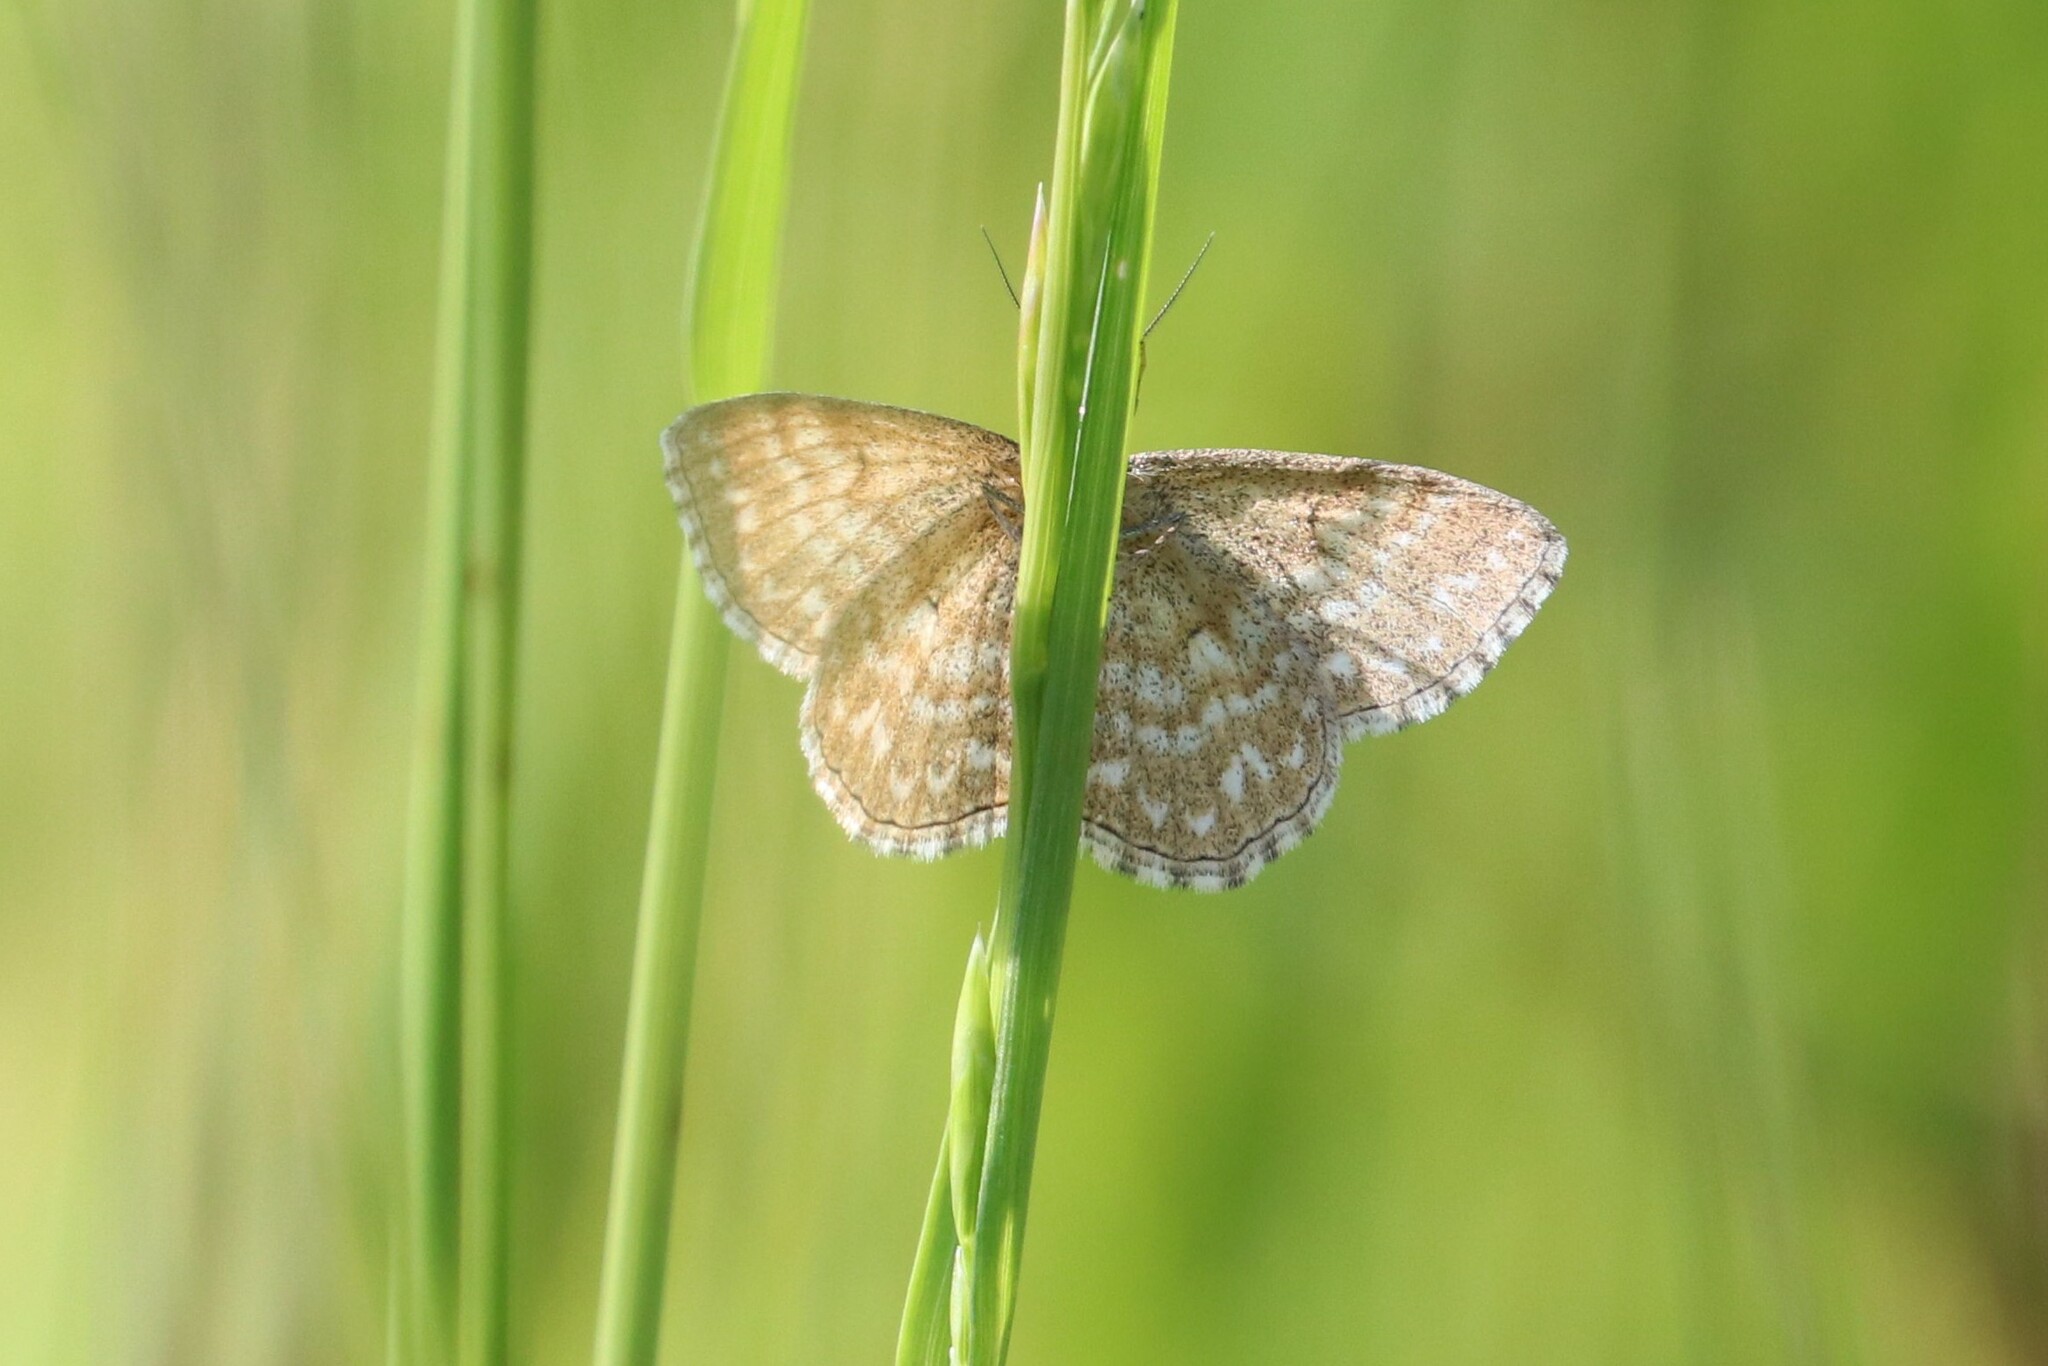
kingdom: Animalia
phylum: Arthropoda
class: Insecta
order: Lepidoptera
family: Geometridae
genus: Scopula
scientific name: Scopula immorata
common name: Lewes wave
